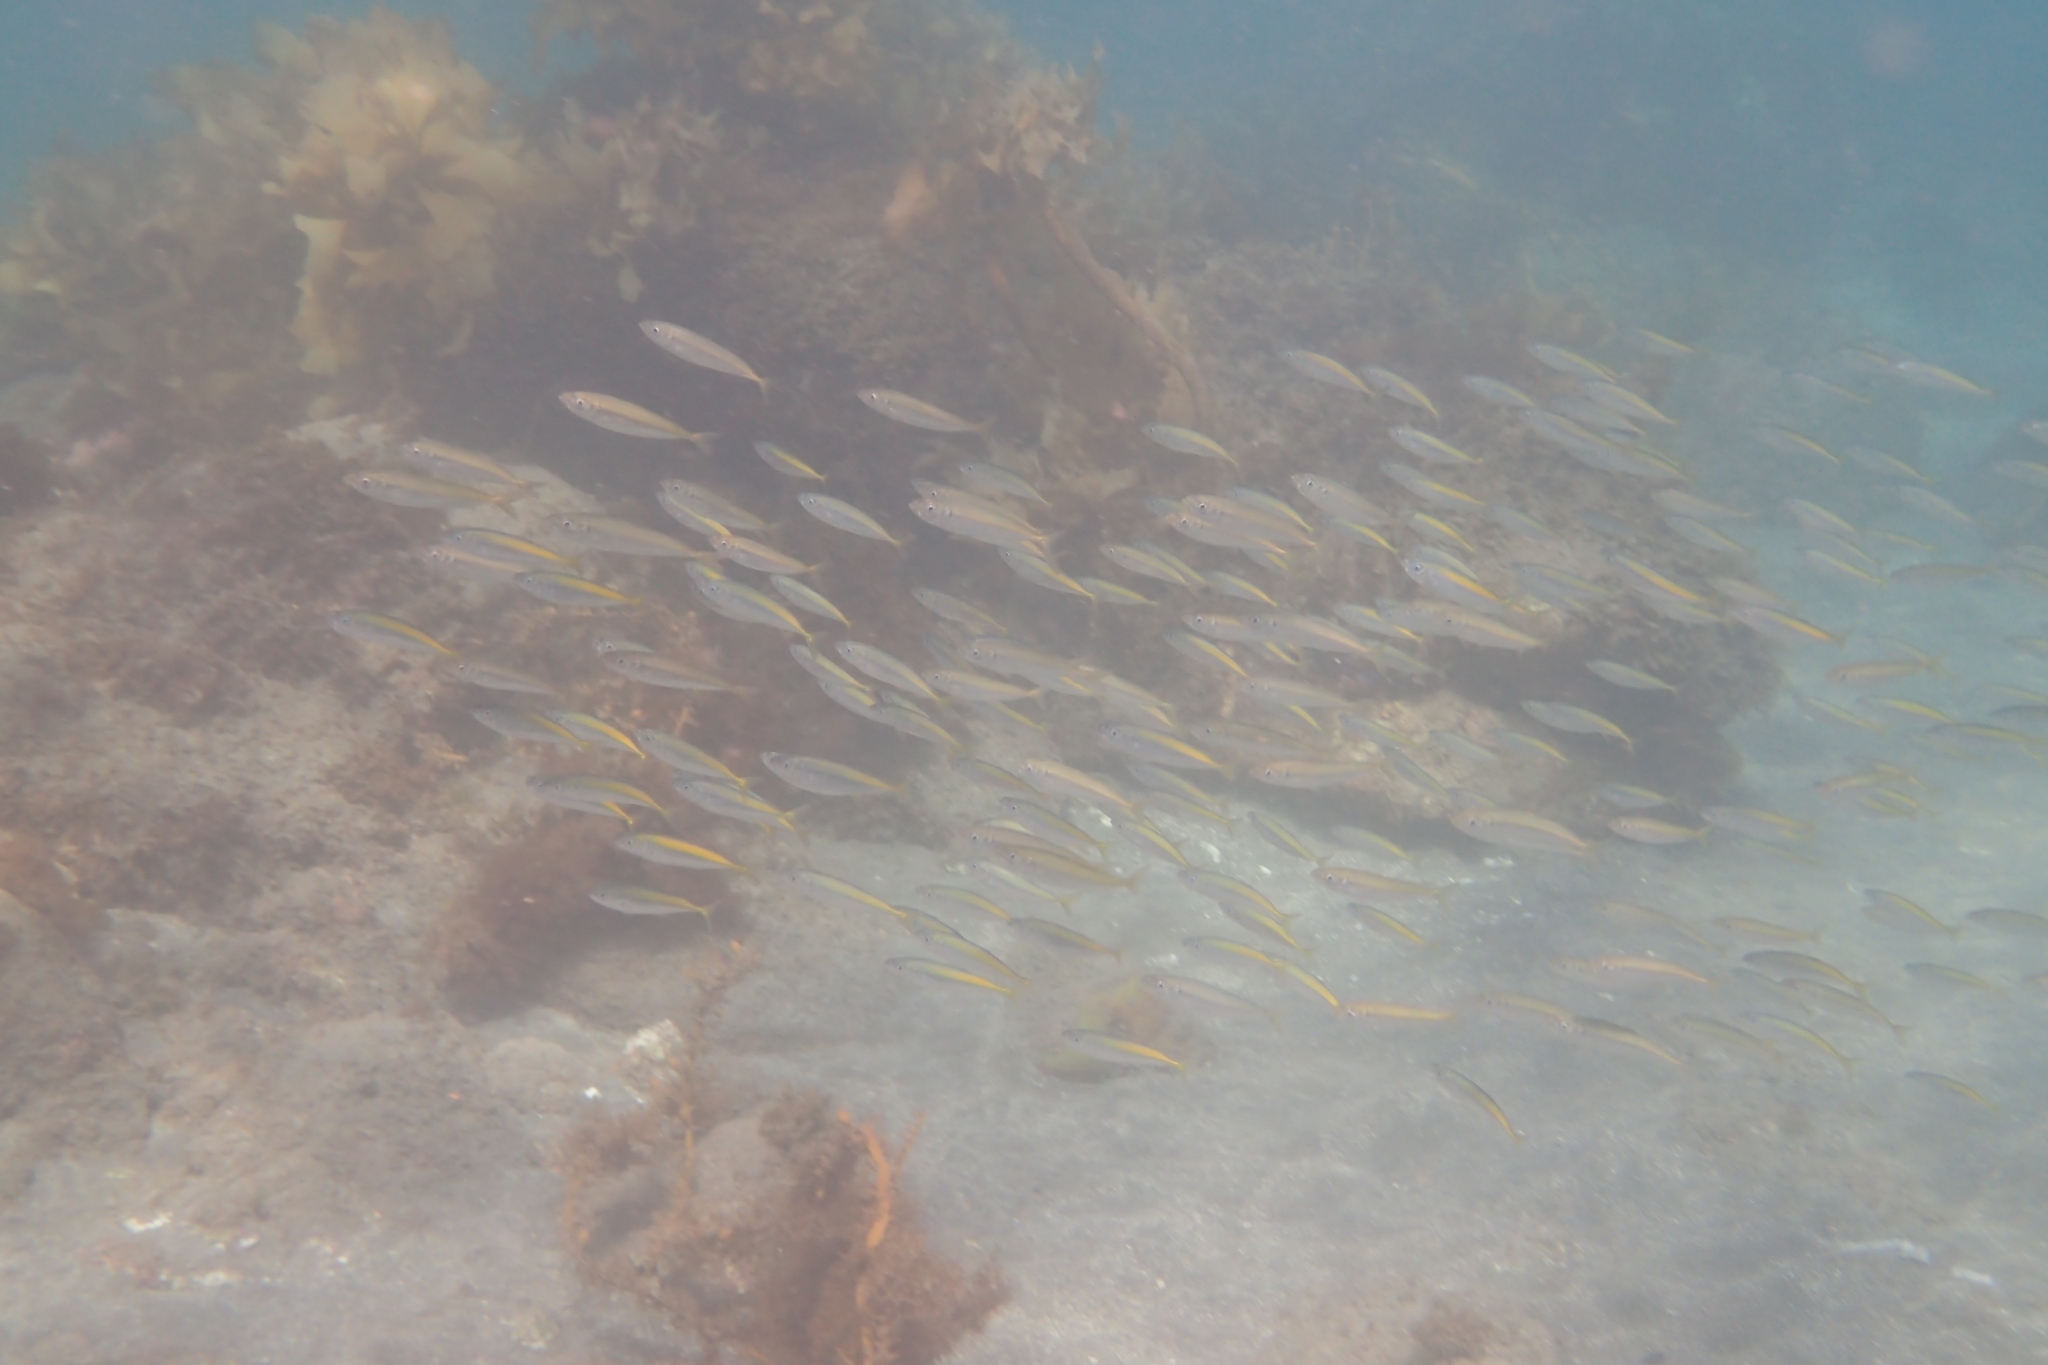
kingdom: Animalia
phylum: Chordata
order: Perciformes
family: Carangidae
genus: Decapterus
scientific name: Decapterus koheru
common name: Koheru
